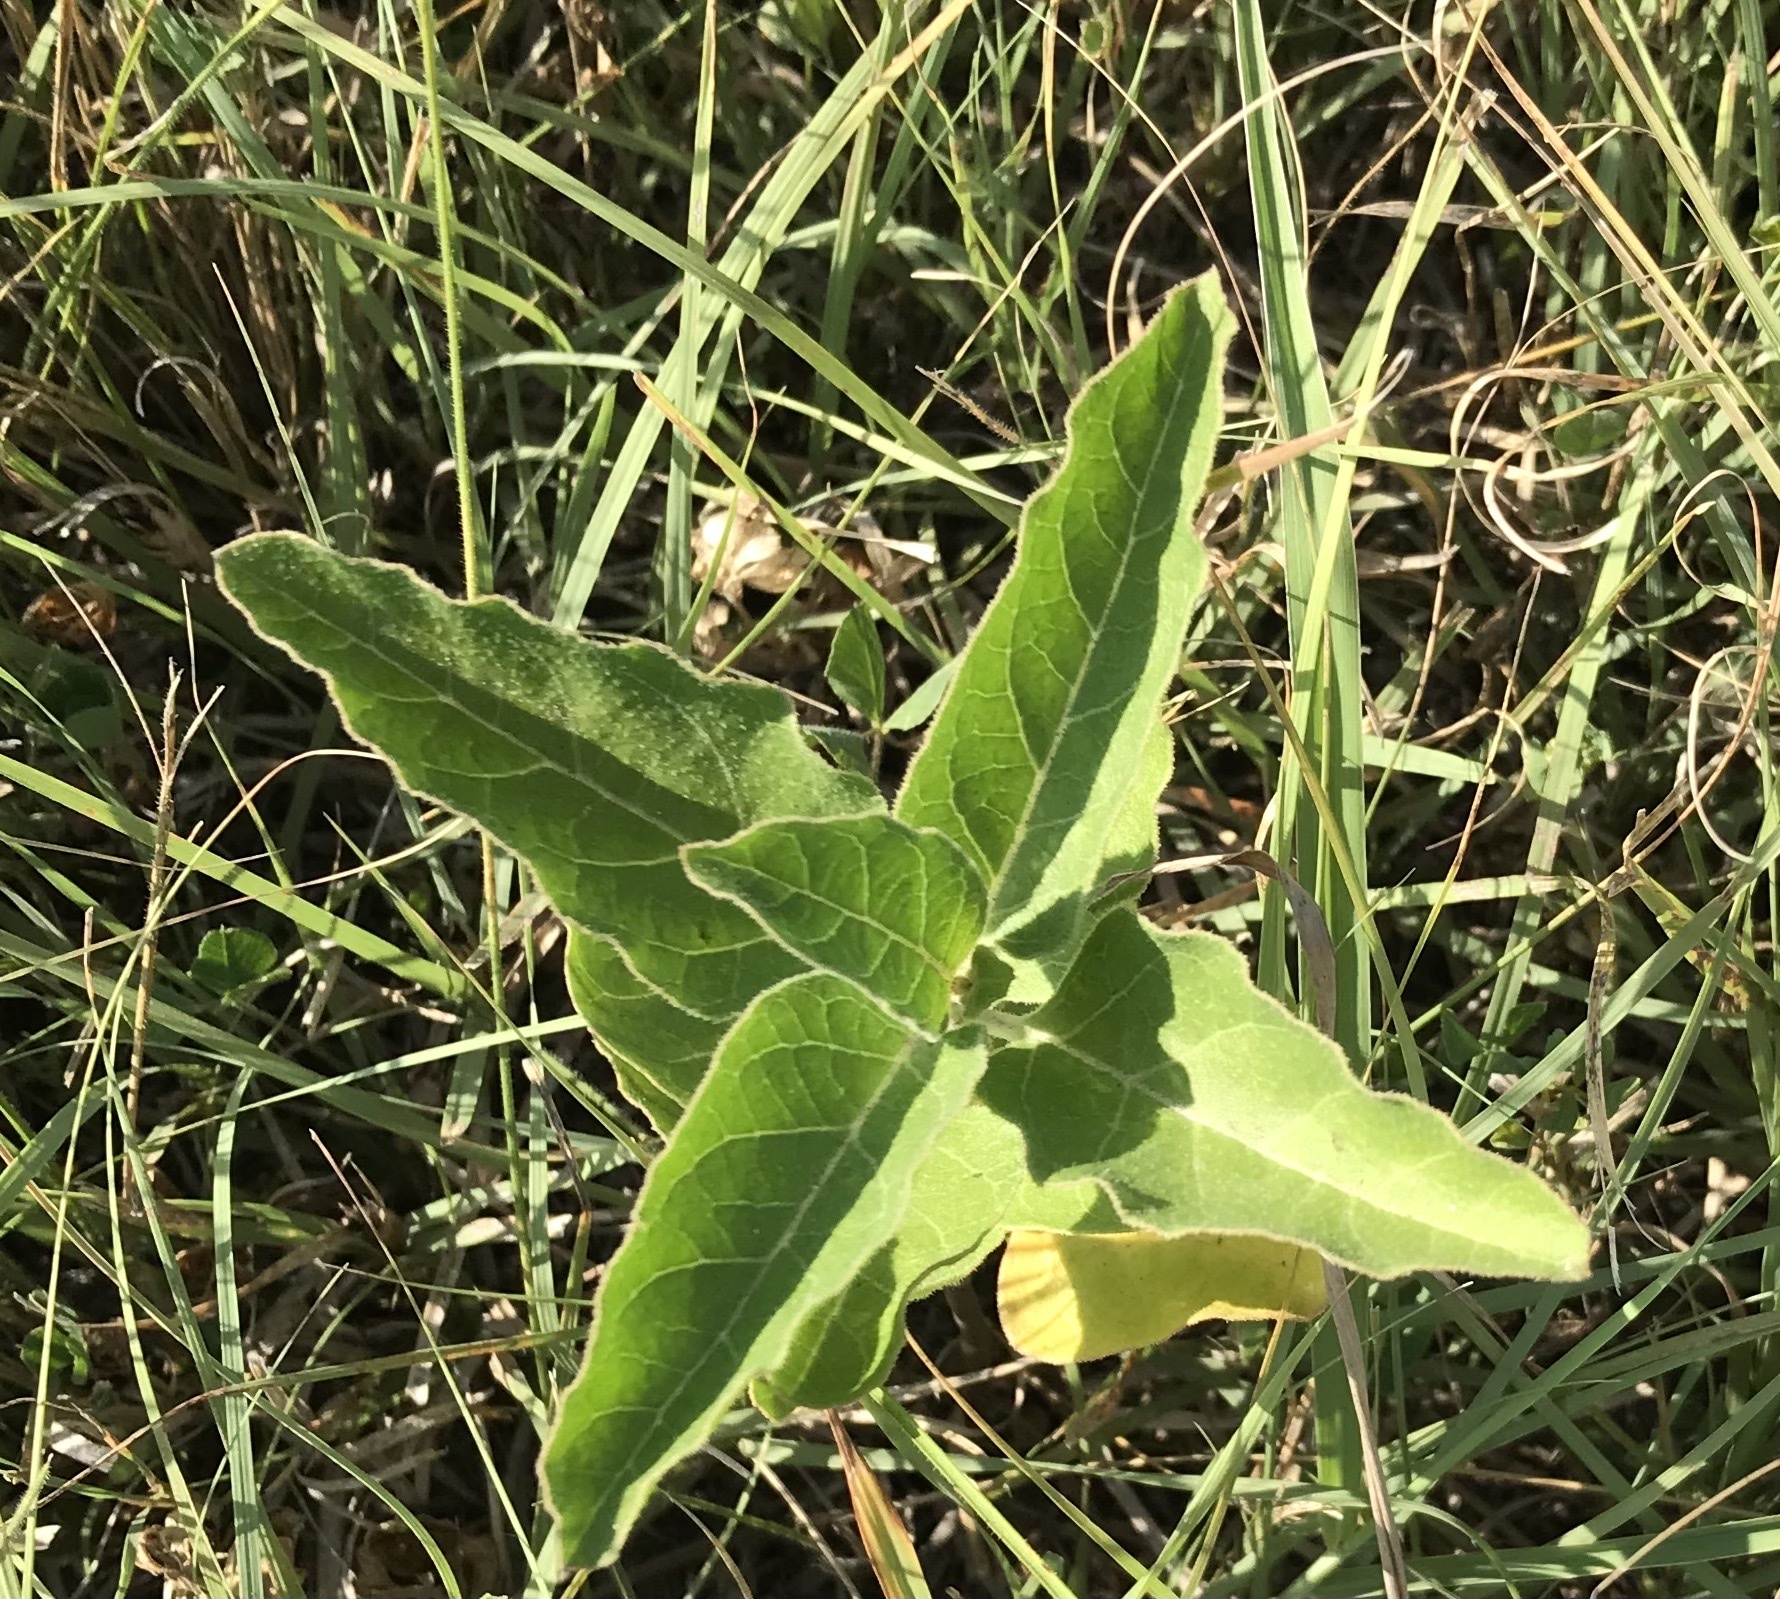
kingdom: Plantae
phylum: Tracheophyta
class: Magnoliopsida
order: Gentianales
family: Apocynaceae
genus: Asclepias
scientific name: Asclepias oenotheroides
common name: Zizotes milkweed
